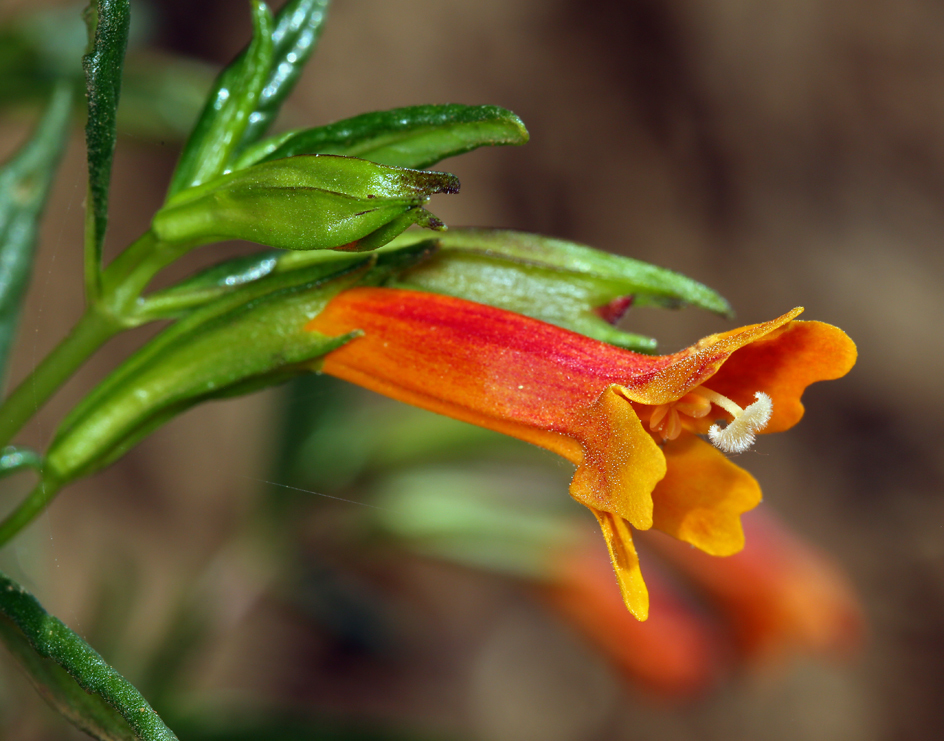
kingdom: Plantae
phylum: Tracheophyta
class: Magnoliopsida
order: Lamiales
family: Phrymaceae
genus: Diplacus
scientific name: Diplacus parviflorus
